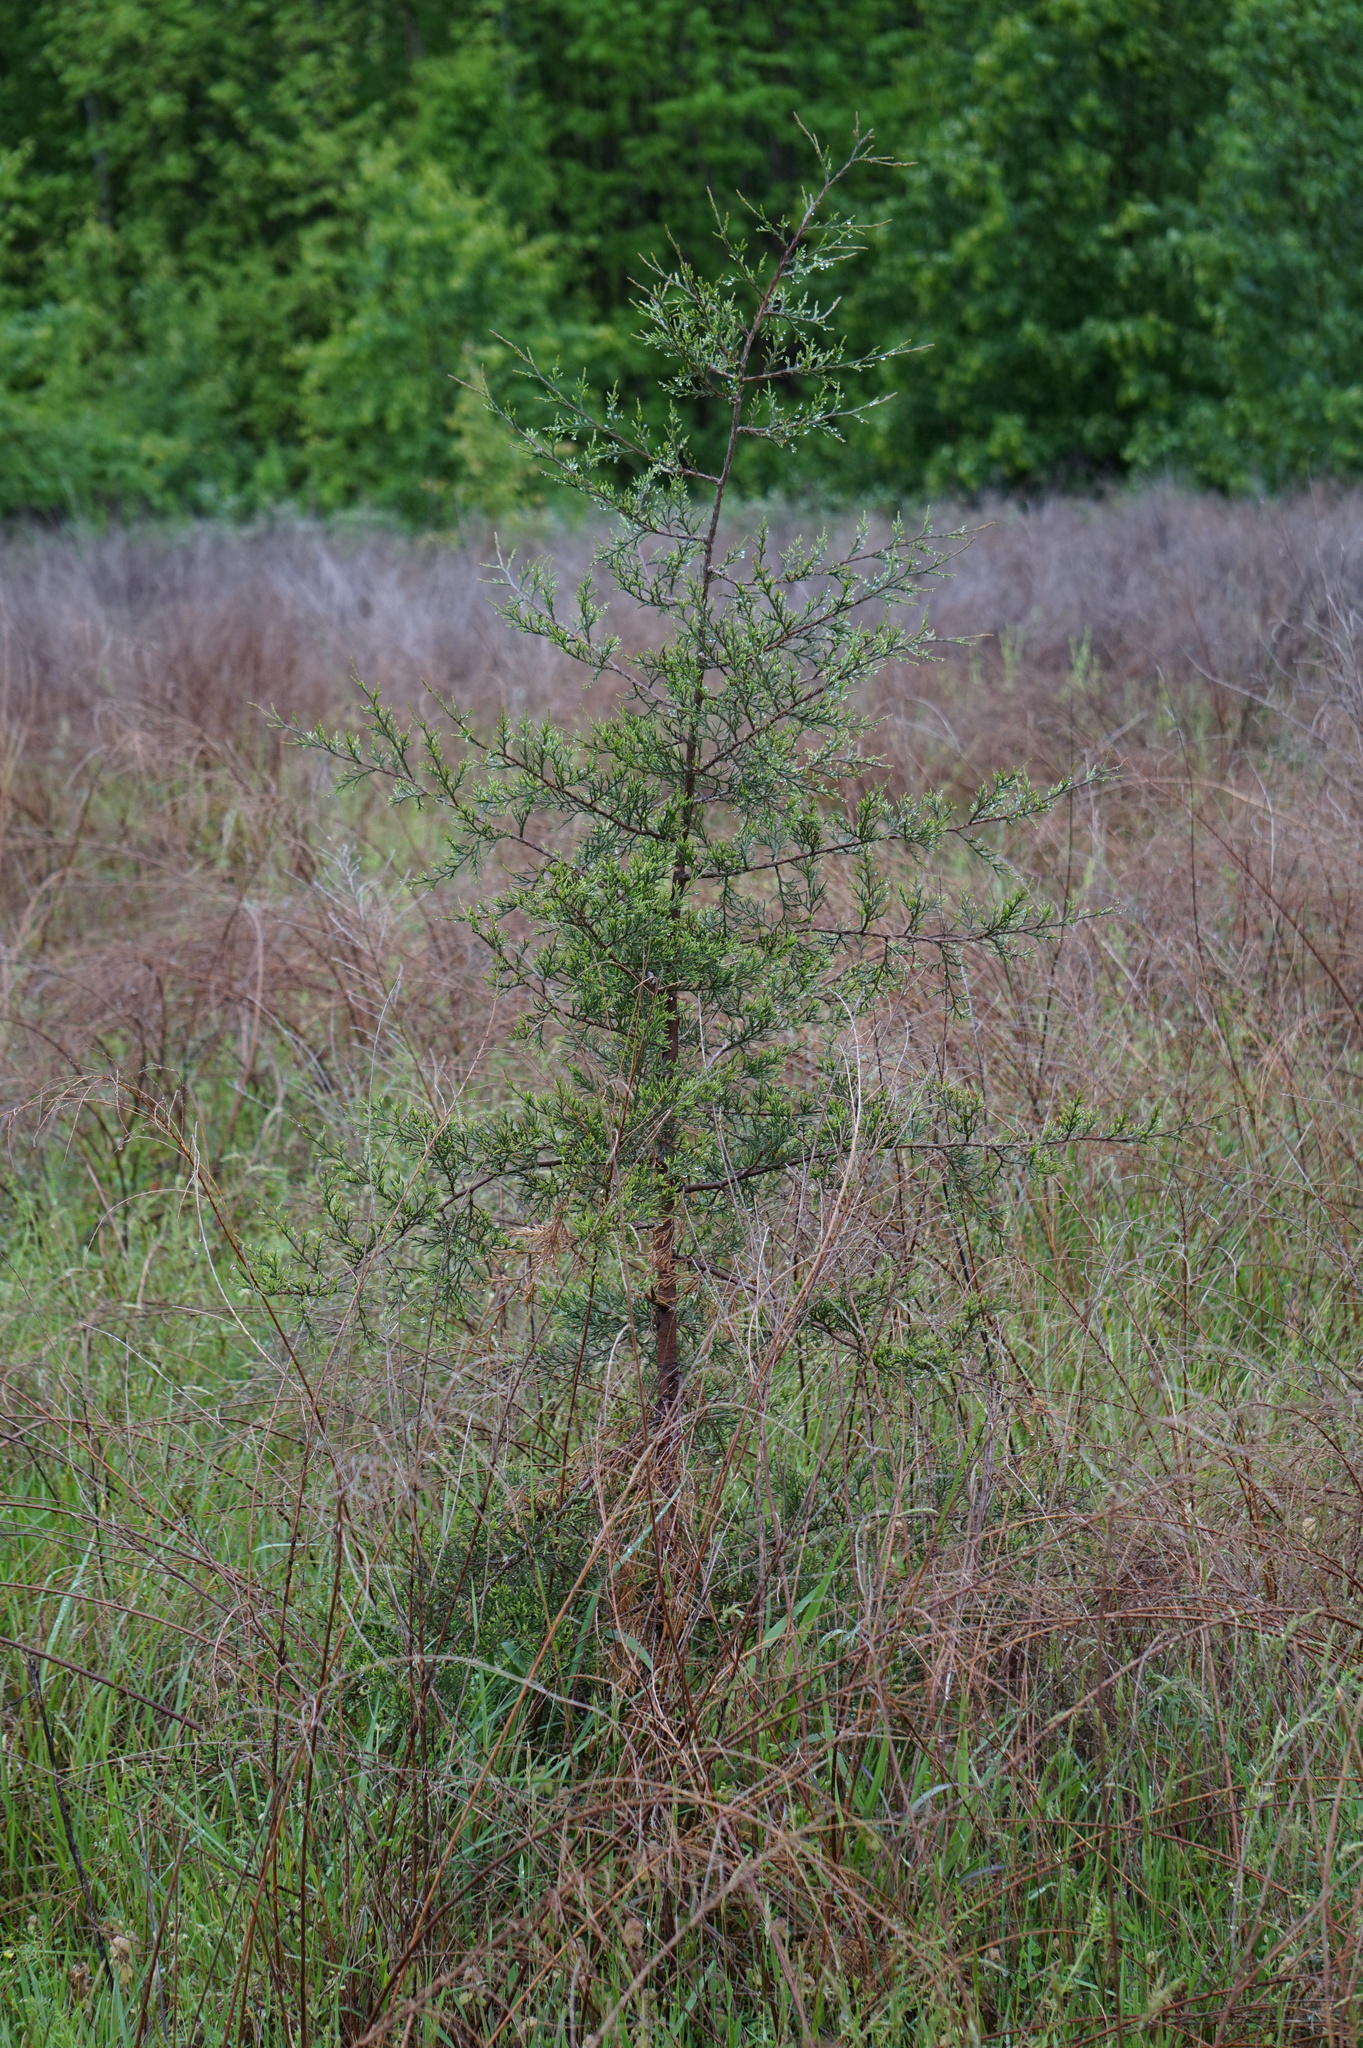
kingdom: Plantae
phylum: Tracheophyta
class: Pinopsida
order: Pinales
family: Cupressaceae
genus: Juniperus
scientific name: Juniperus virginiana
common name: Red juniper
